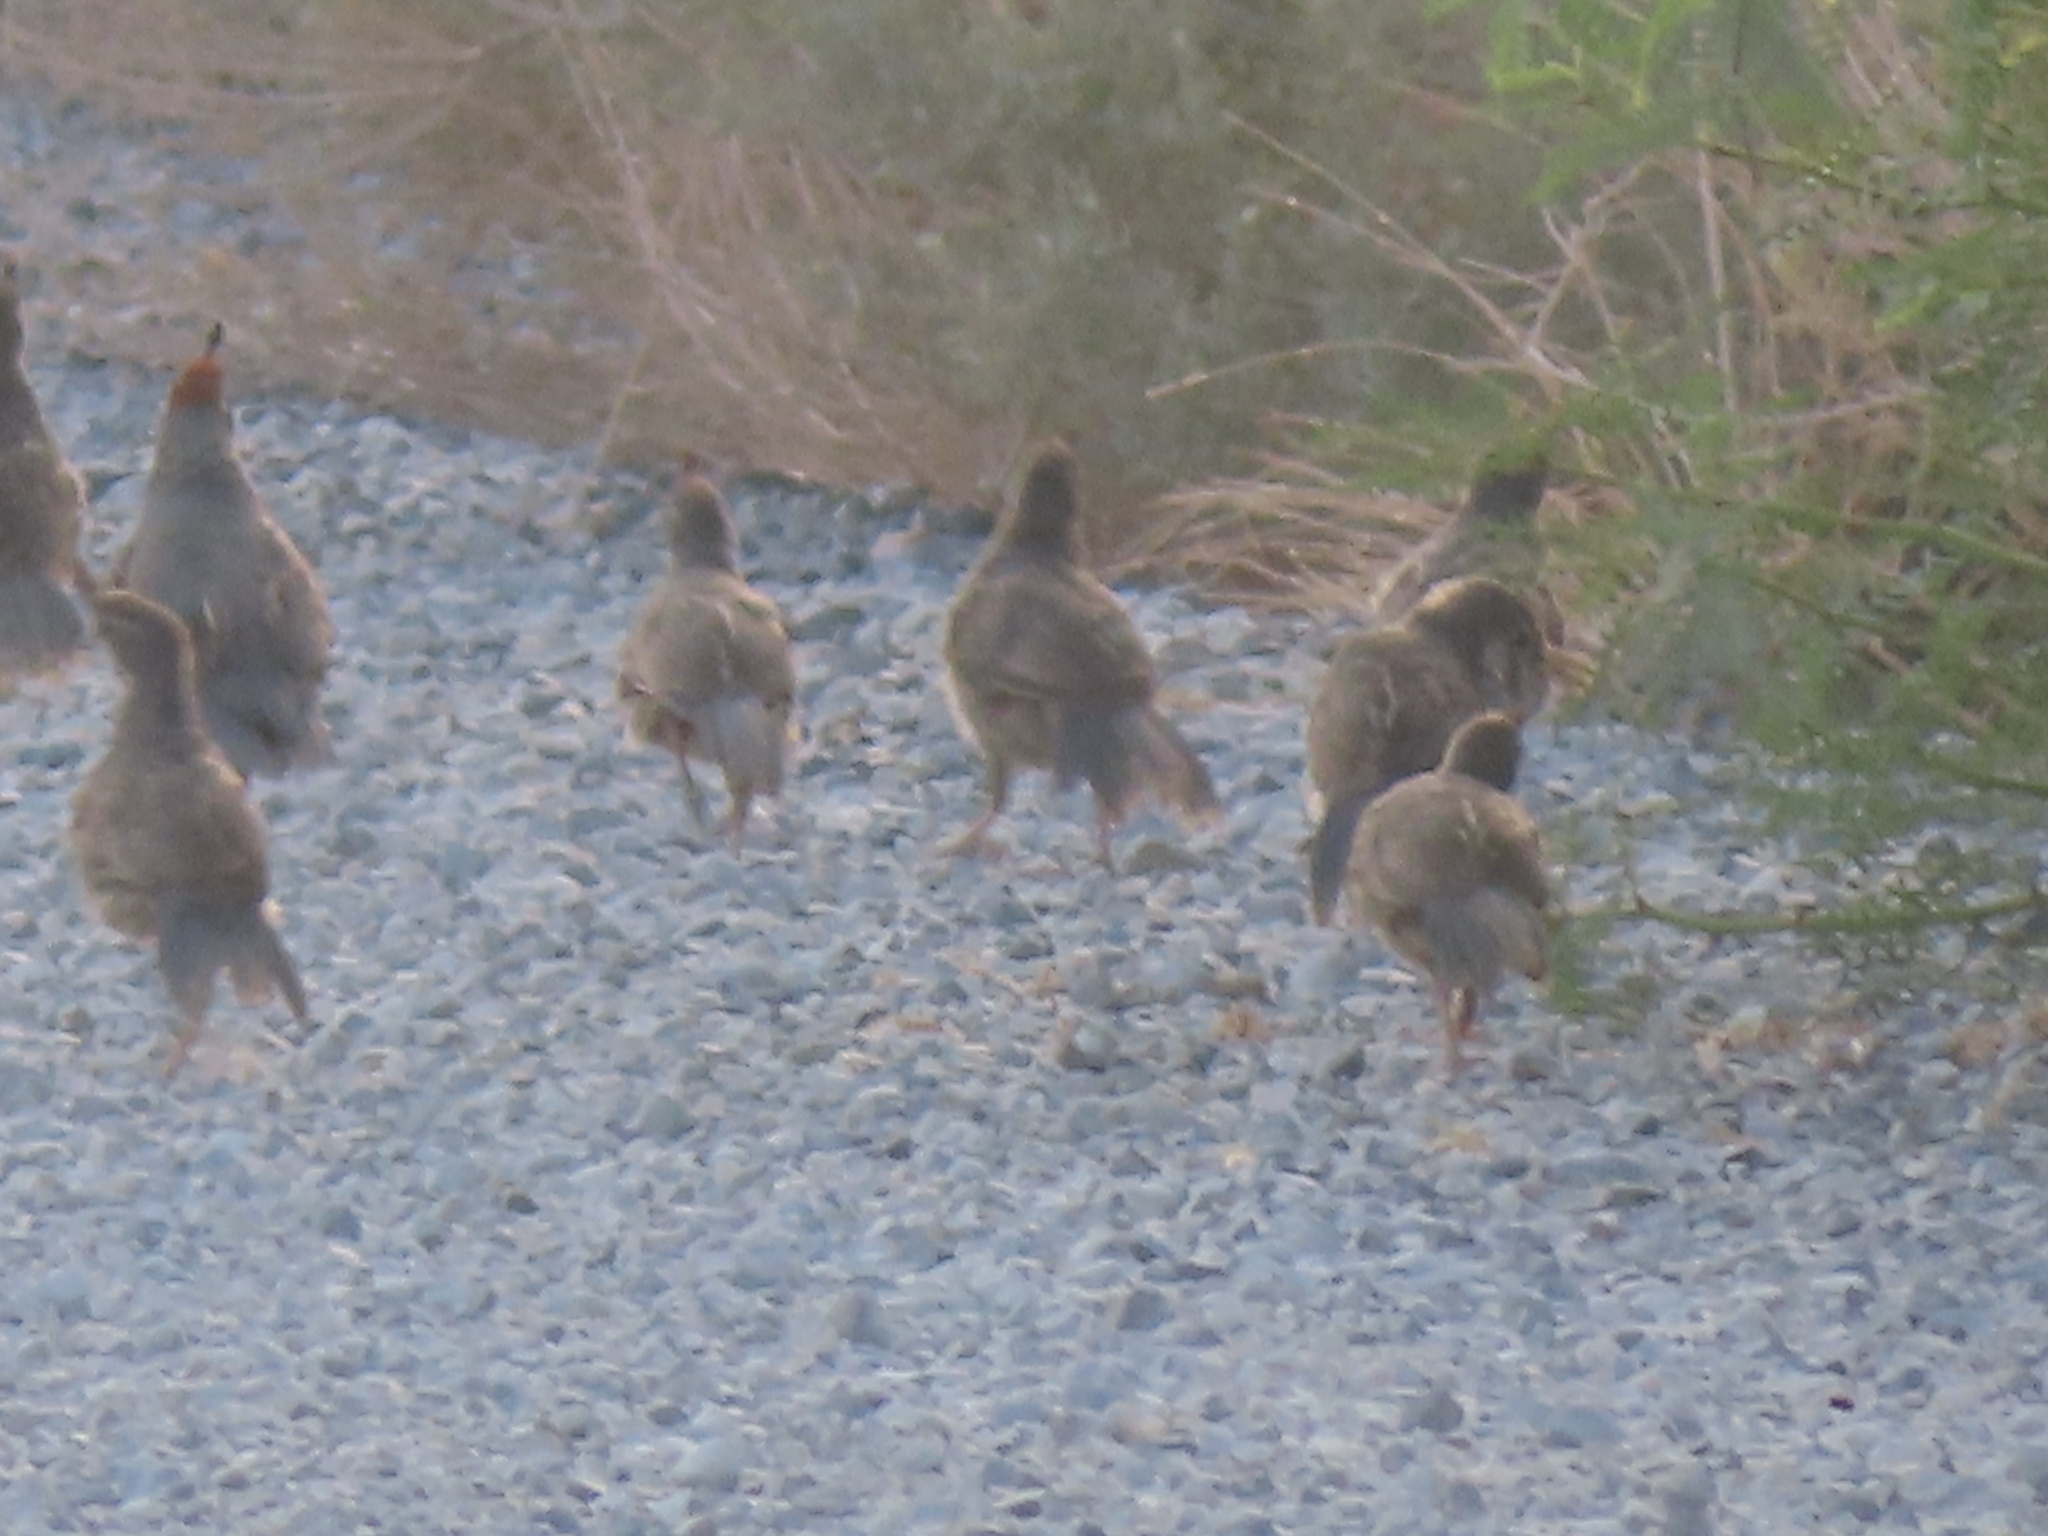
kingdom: Animalia
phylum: Chordata
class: Aves
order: Galliformes
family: Odontophoridae
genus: Callipepla
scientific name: Callipepla gambelii
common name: Gambel's quail
